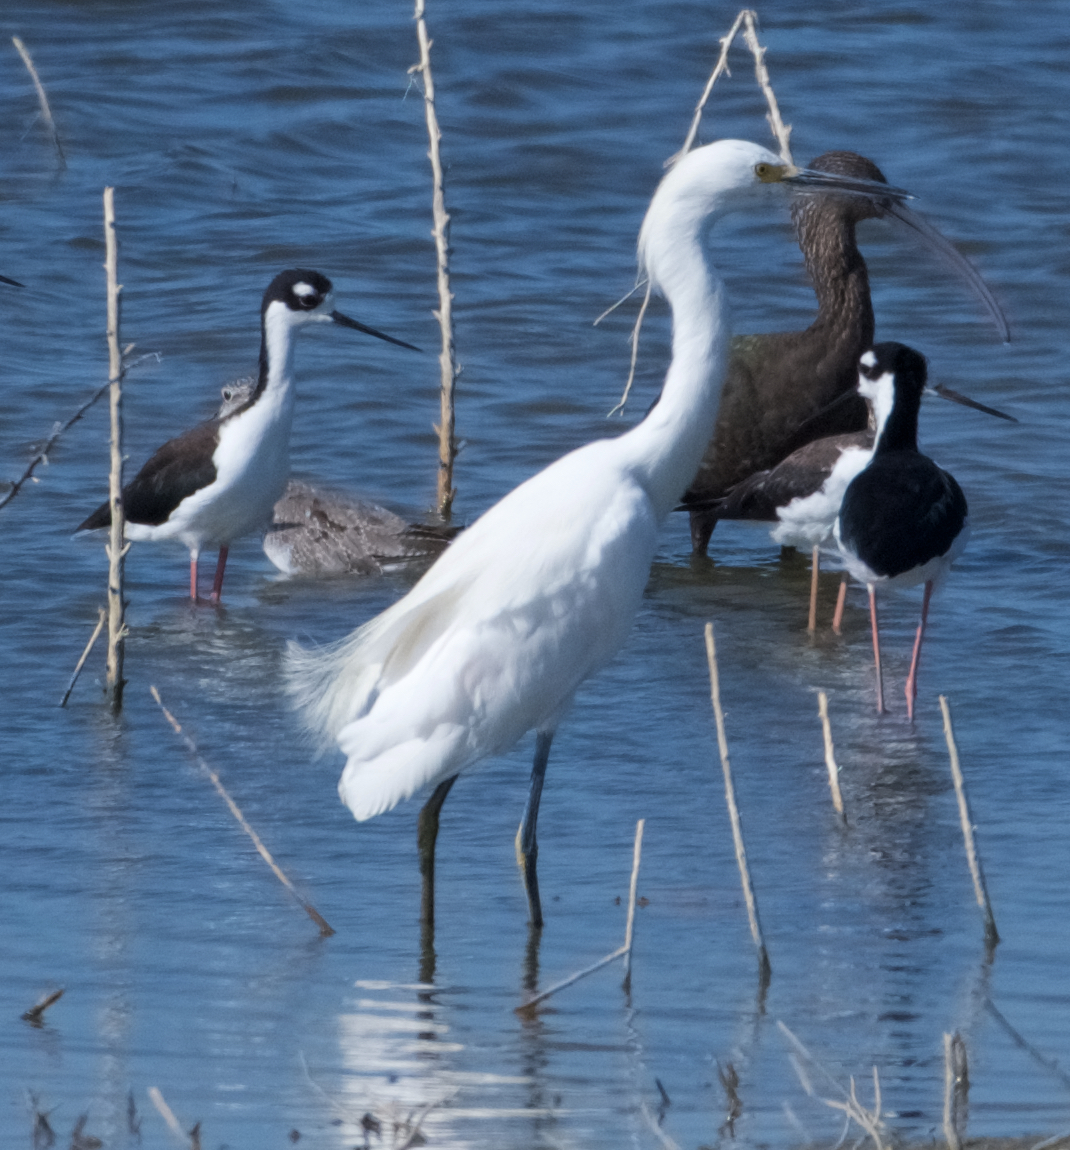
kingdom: Animalia
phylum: Chordata
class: Aves
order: Pelecaniformes
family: Ardeidae
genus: Egretta
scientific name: Egretta thula
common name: Snowy egret
